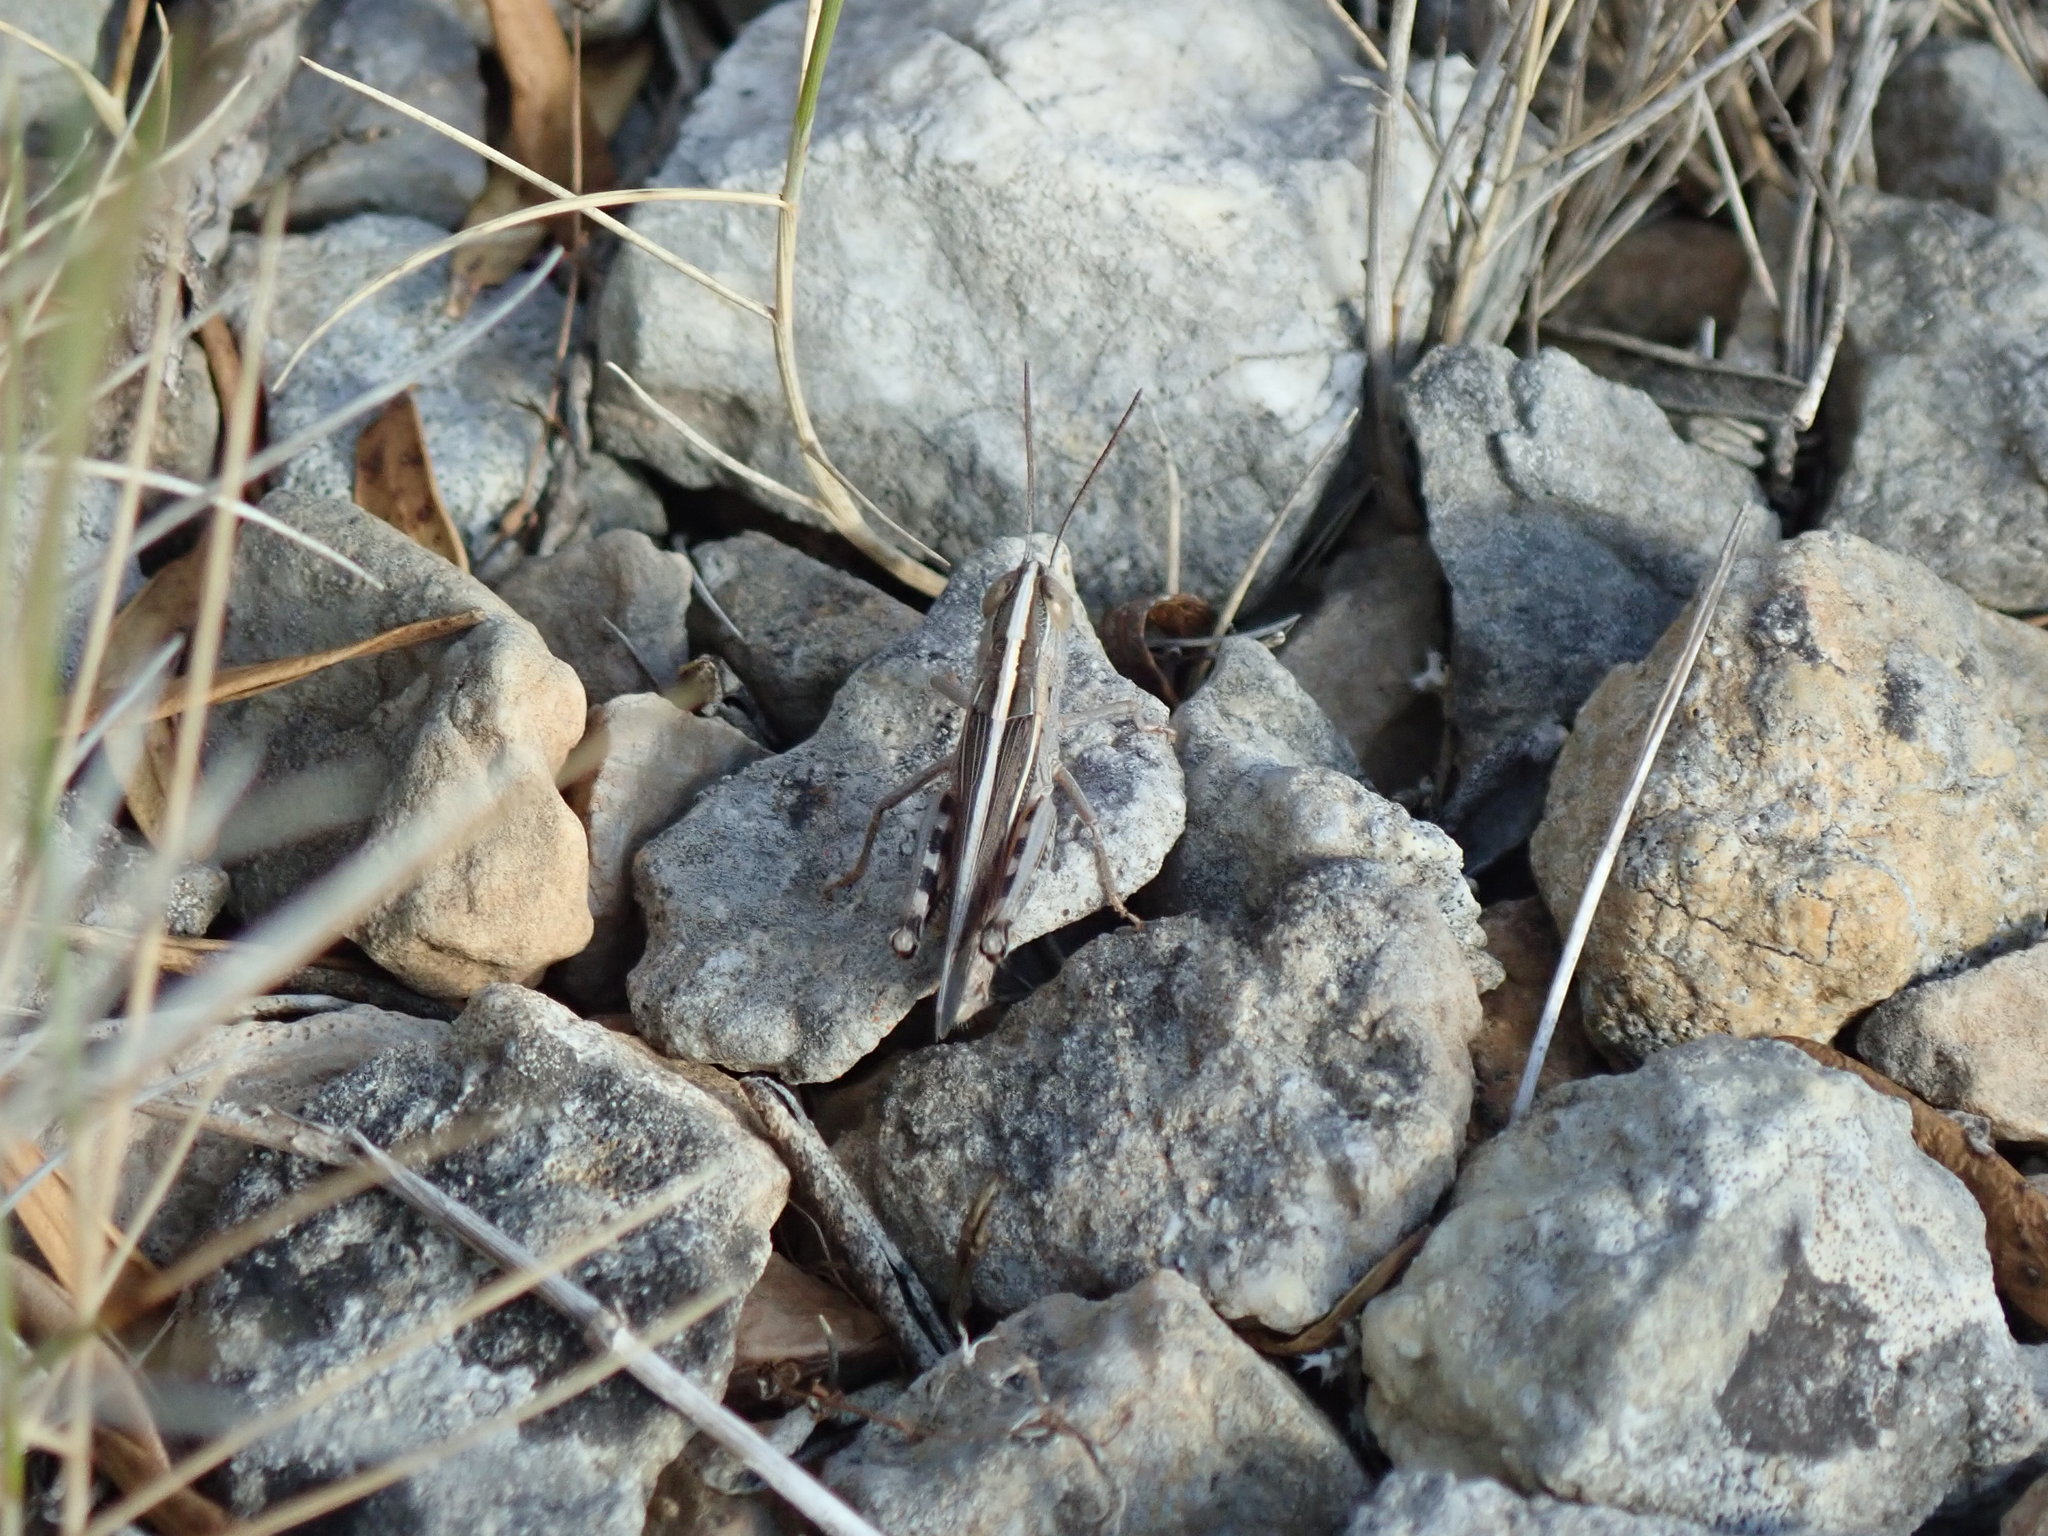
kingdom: Animalia
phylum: Arthropoda
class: Insecta
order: Orthoptera
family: Acrididae
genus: Ramburiella
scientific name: Ramburiella hispanica
